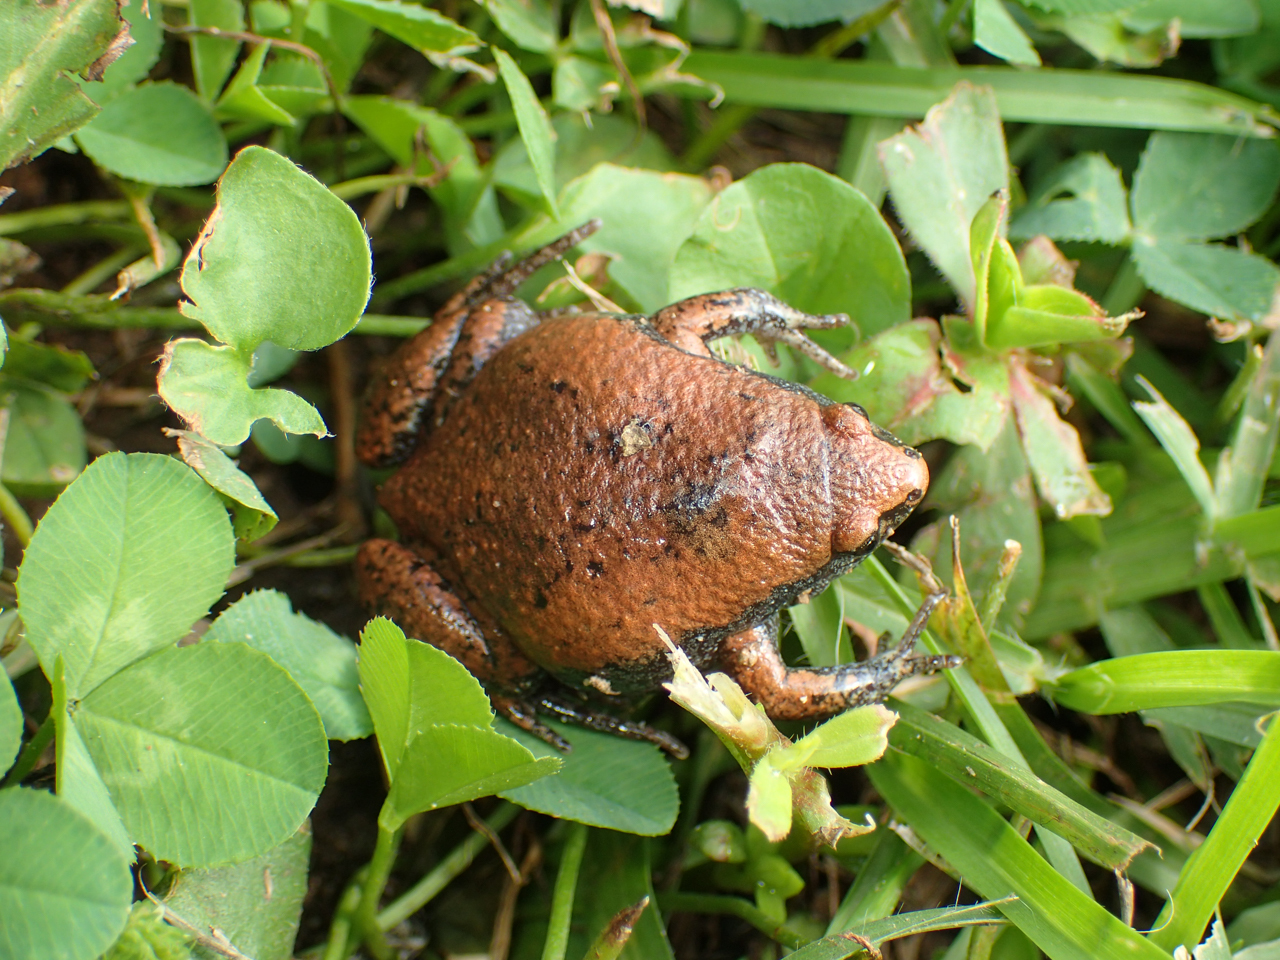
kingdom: Animalia
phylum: Chordata
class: Amphibia
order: Anura
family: Microhylidae
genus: Gastrophryne
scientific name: Gastrophryne carolinensis
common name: Eastern narrowmouth toad
